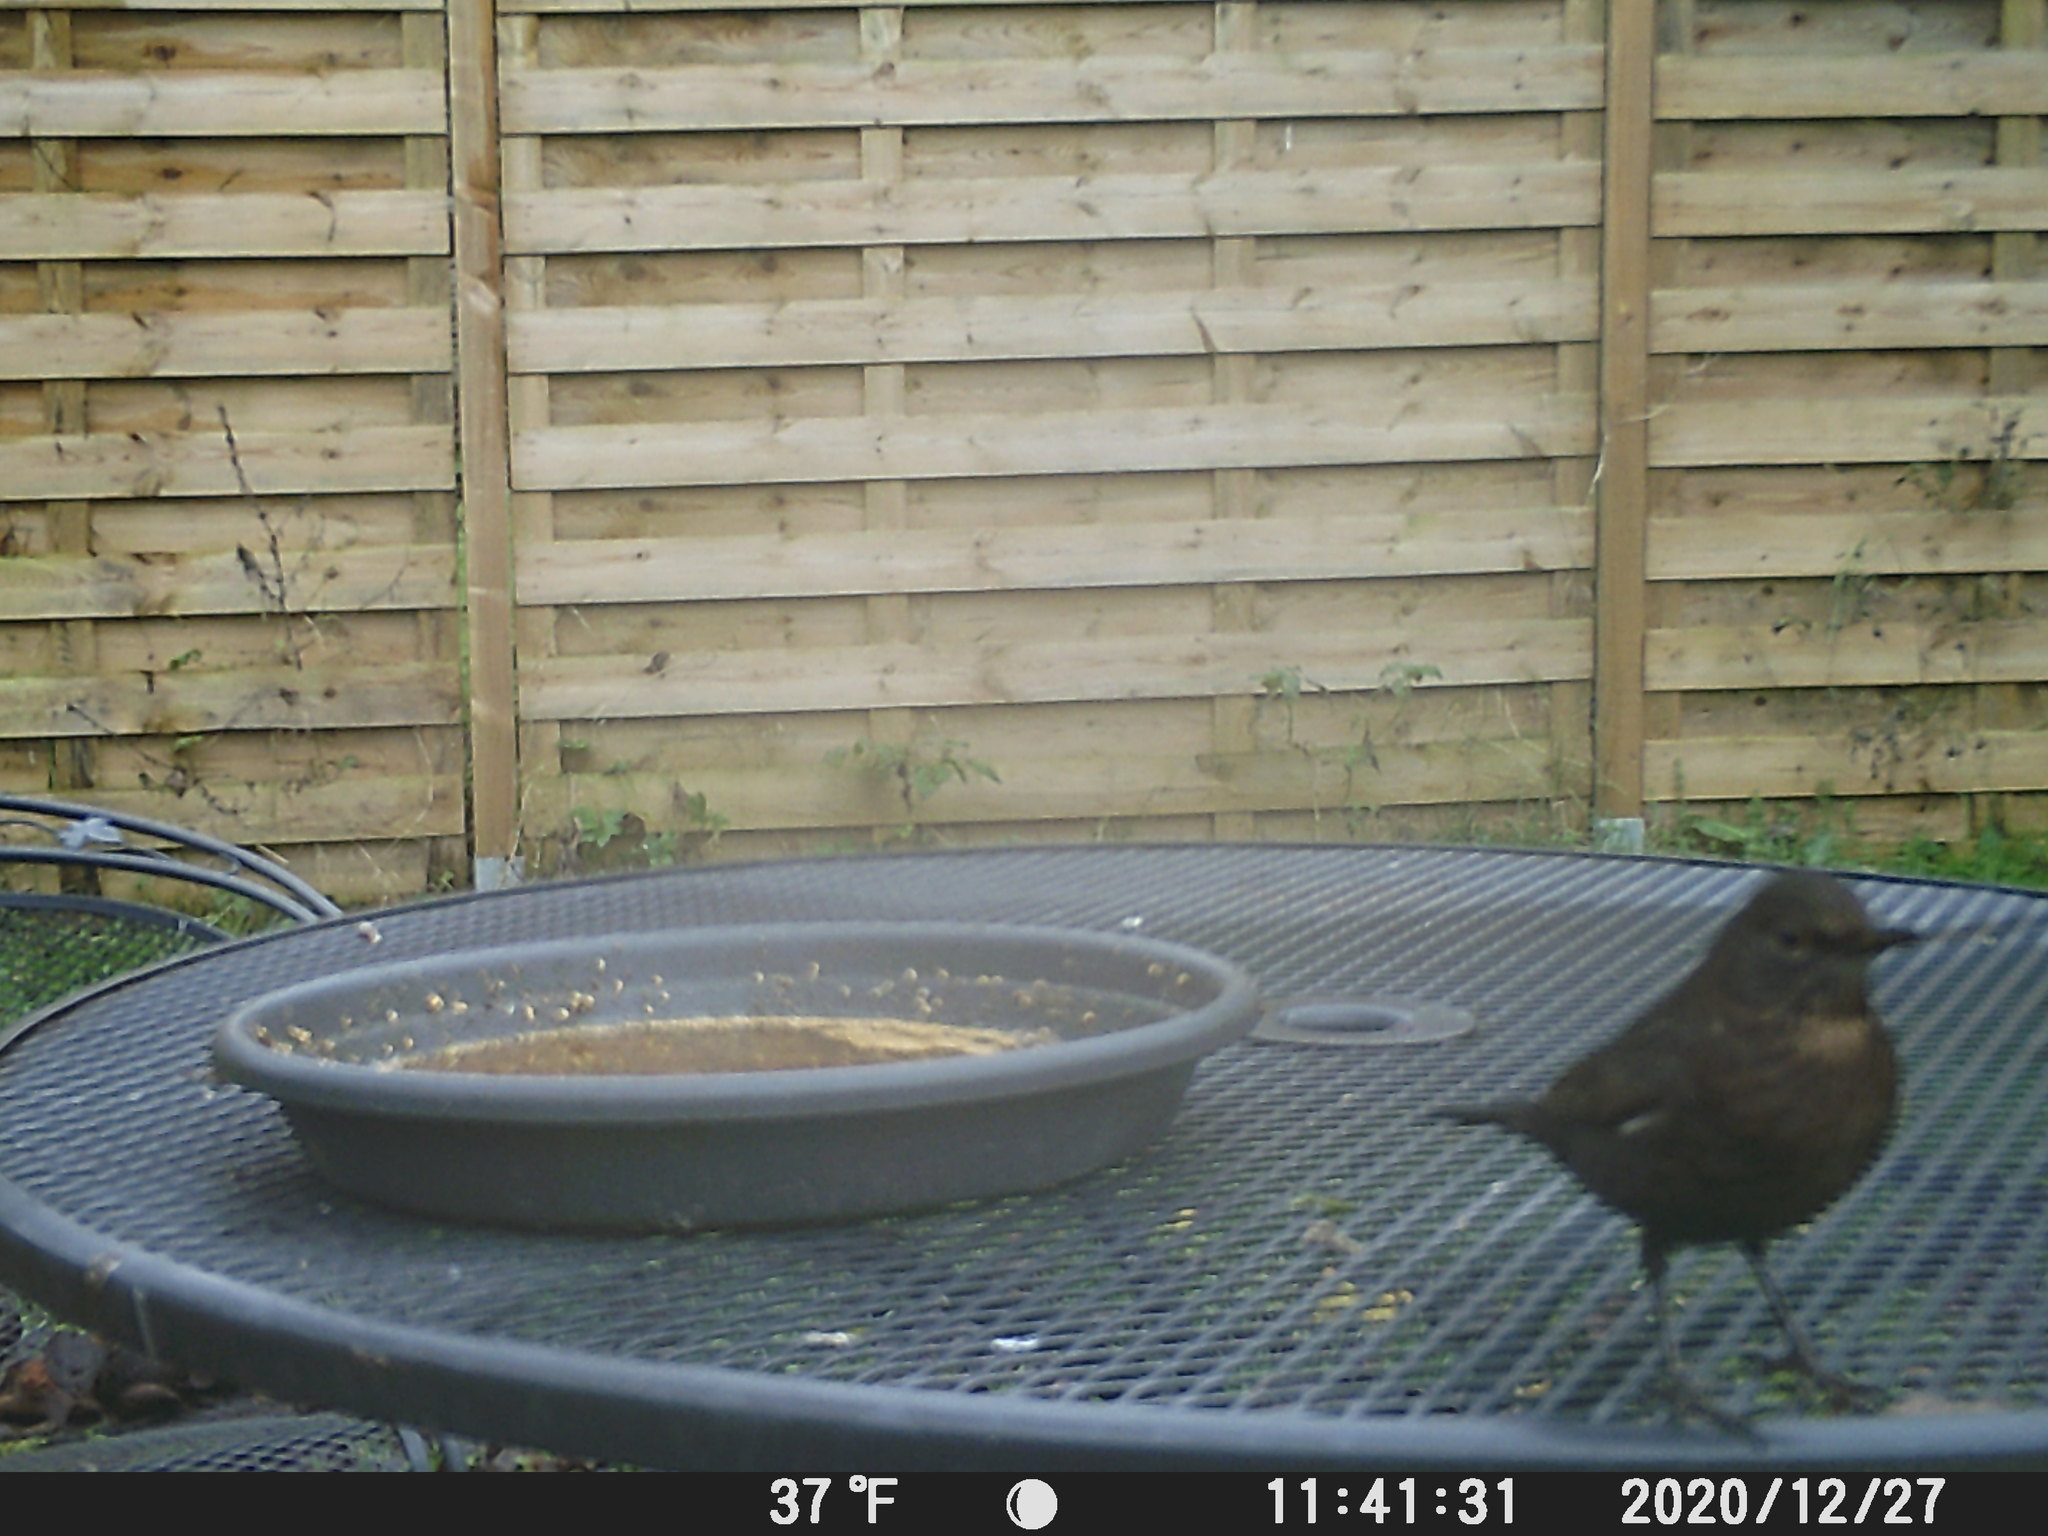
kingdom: Animalia
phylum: Chordata
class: Aves
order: Passeriformes
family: Turdidae
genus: Turdus
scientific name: Turdus merula
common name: Common blackbird
